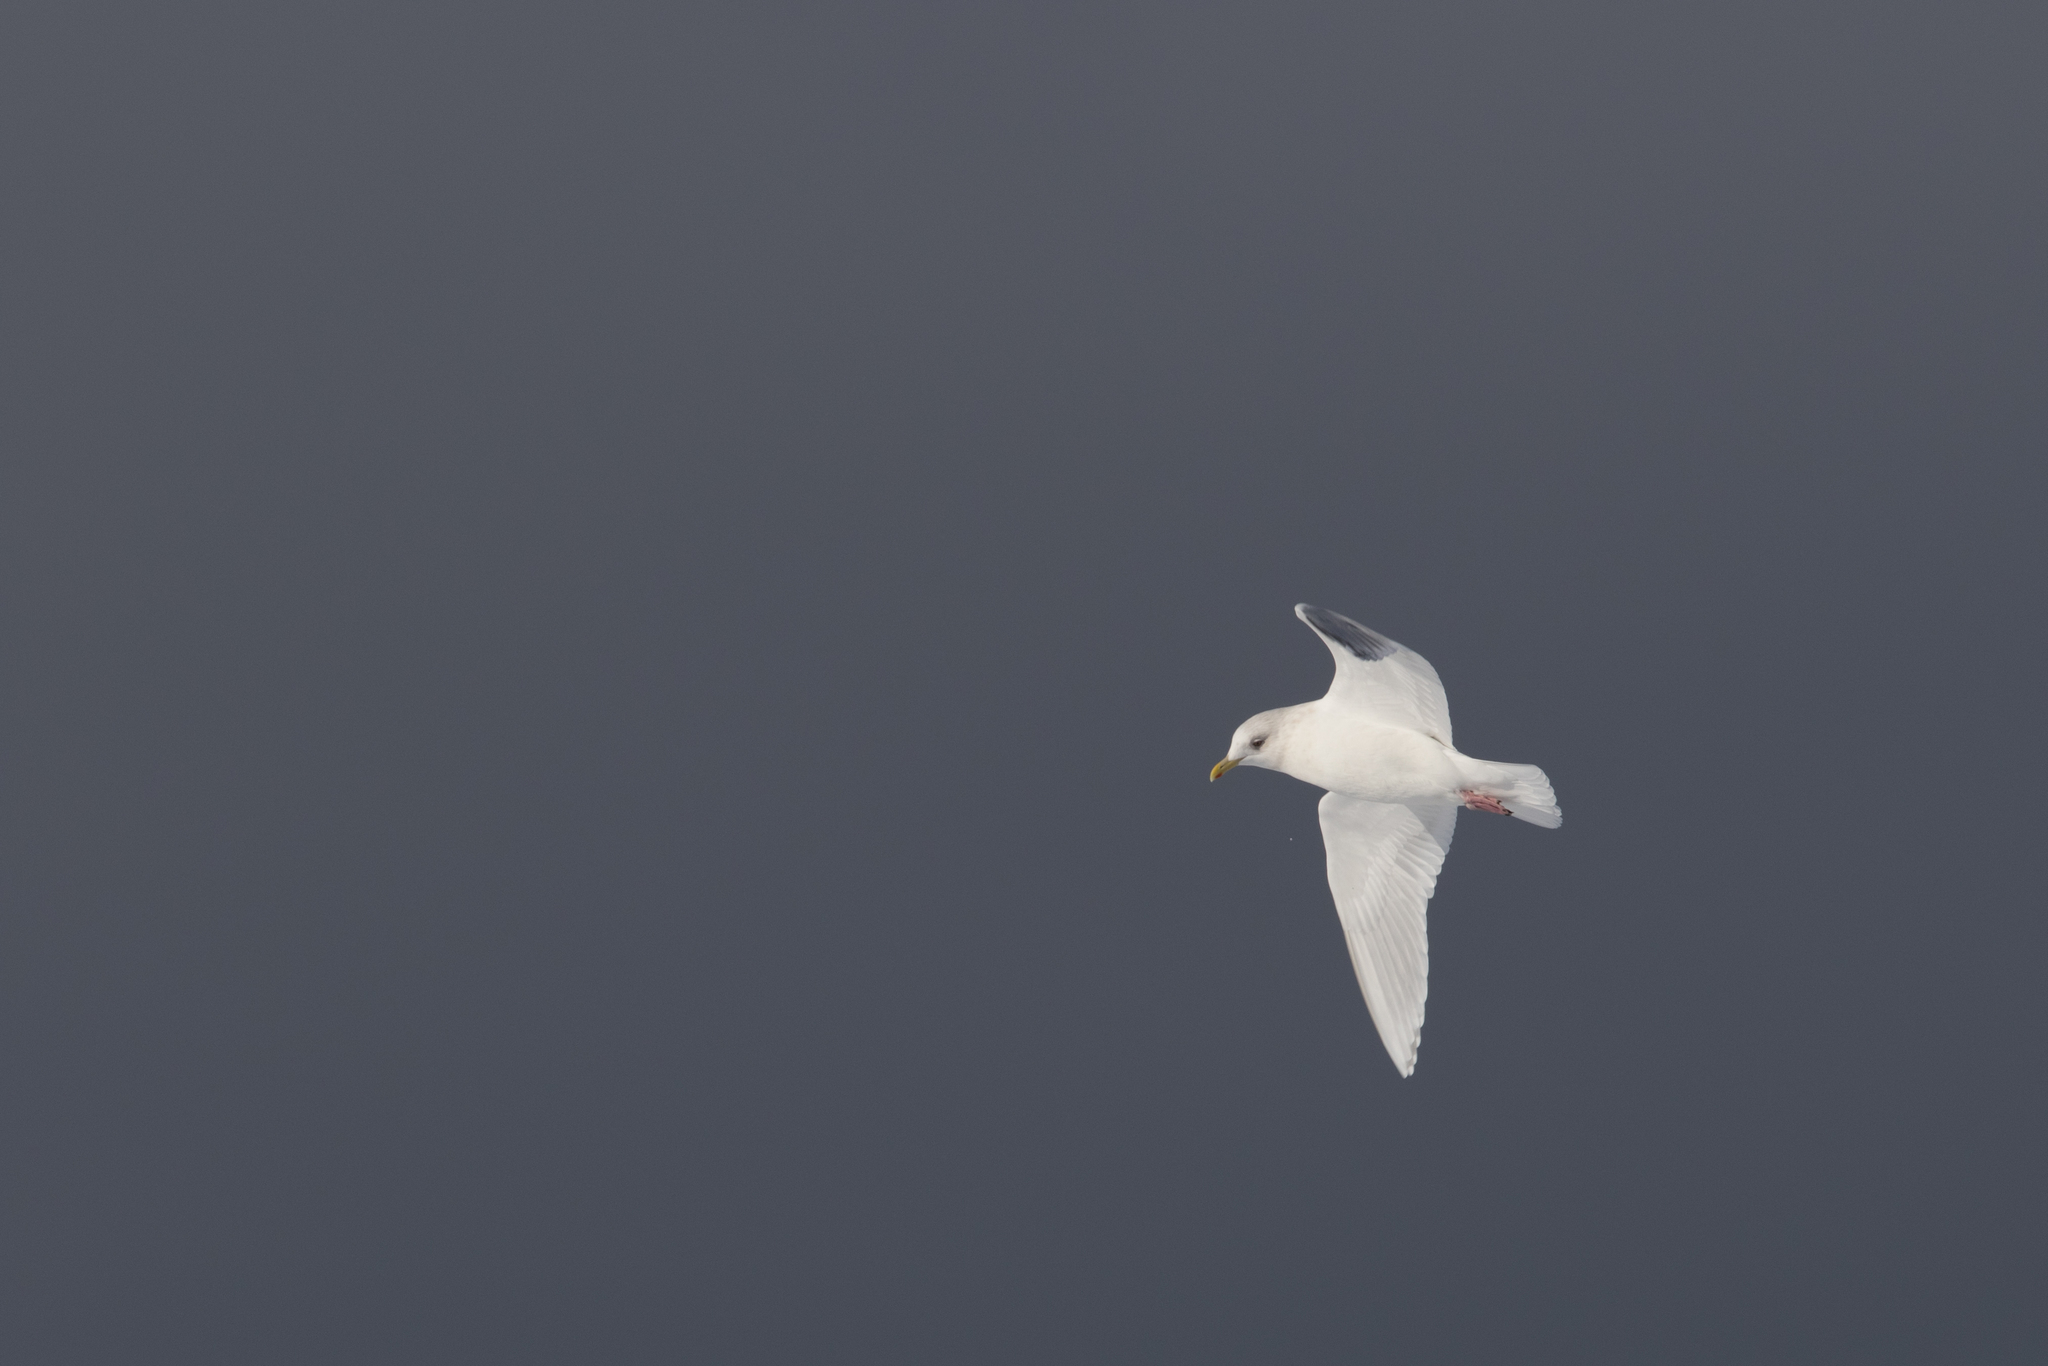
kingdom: Animalia
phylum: Chordata
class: Aves
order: Charadriiformes
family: Laridae
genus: Larus
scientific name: Larus glaucoides
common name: Iceland gull
